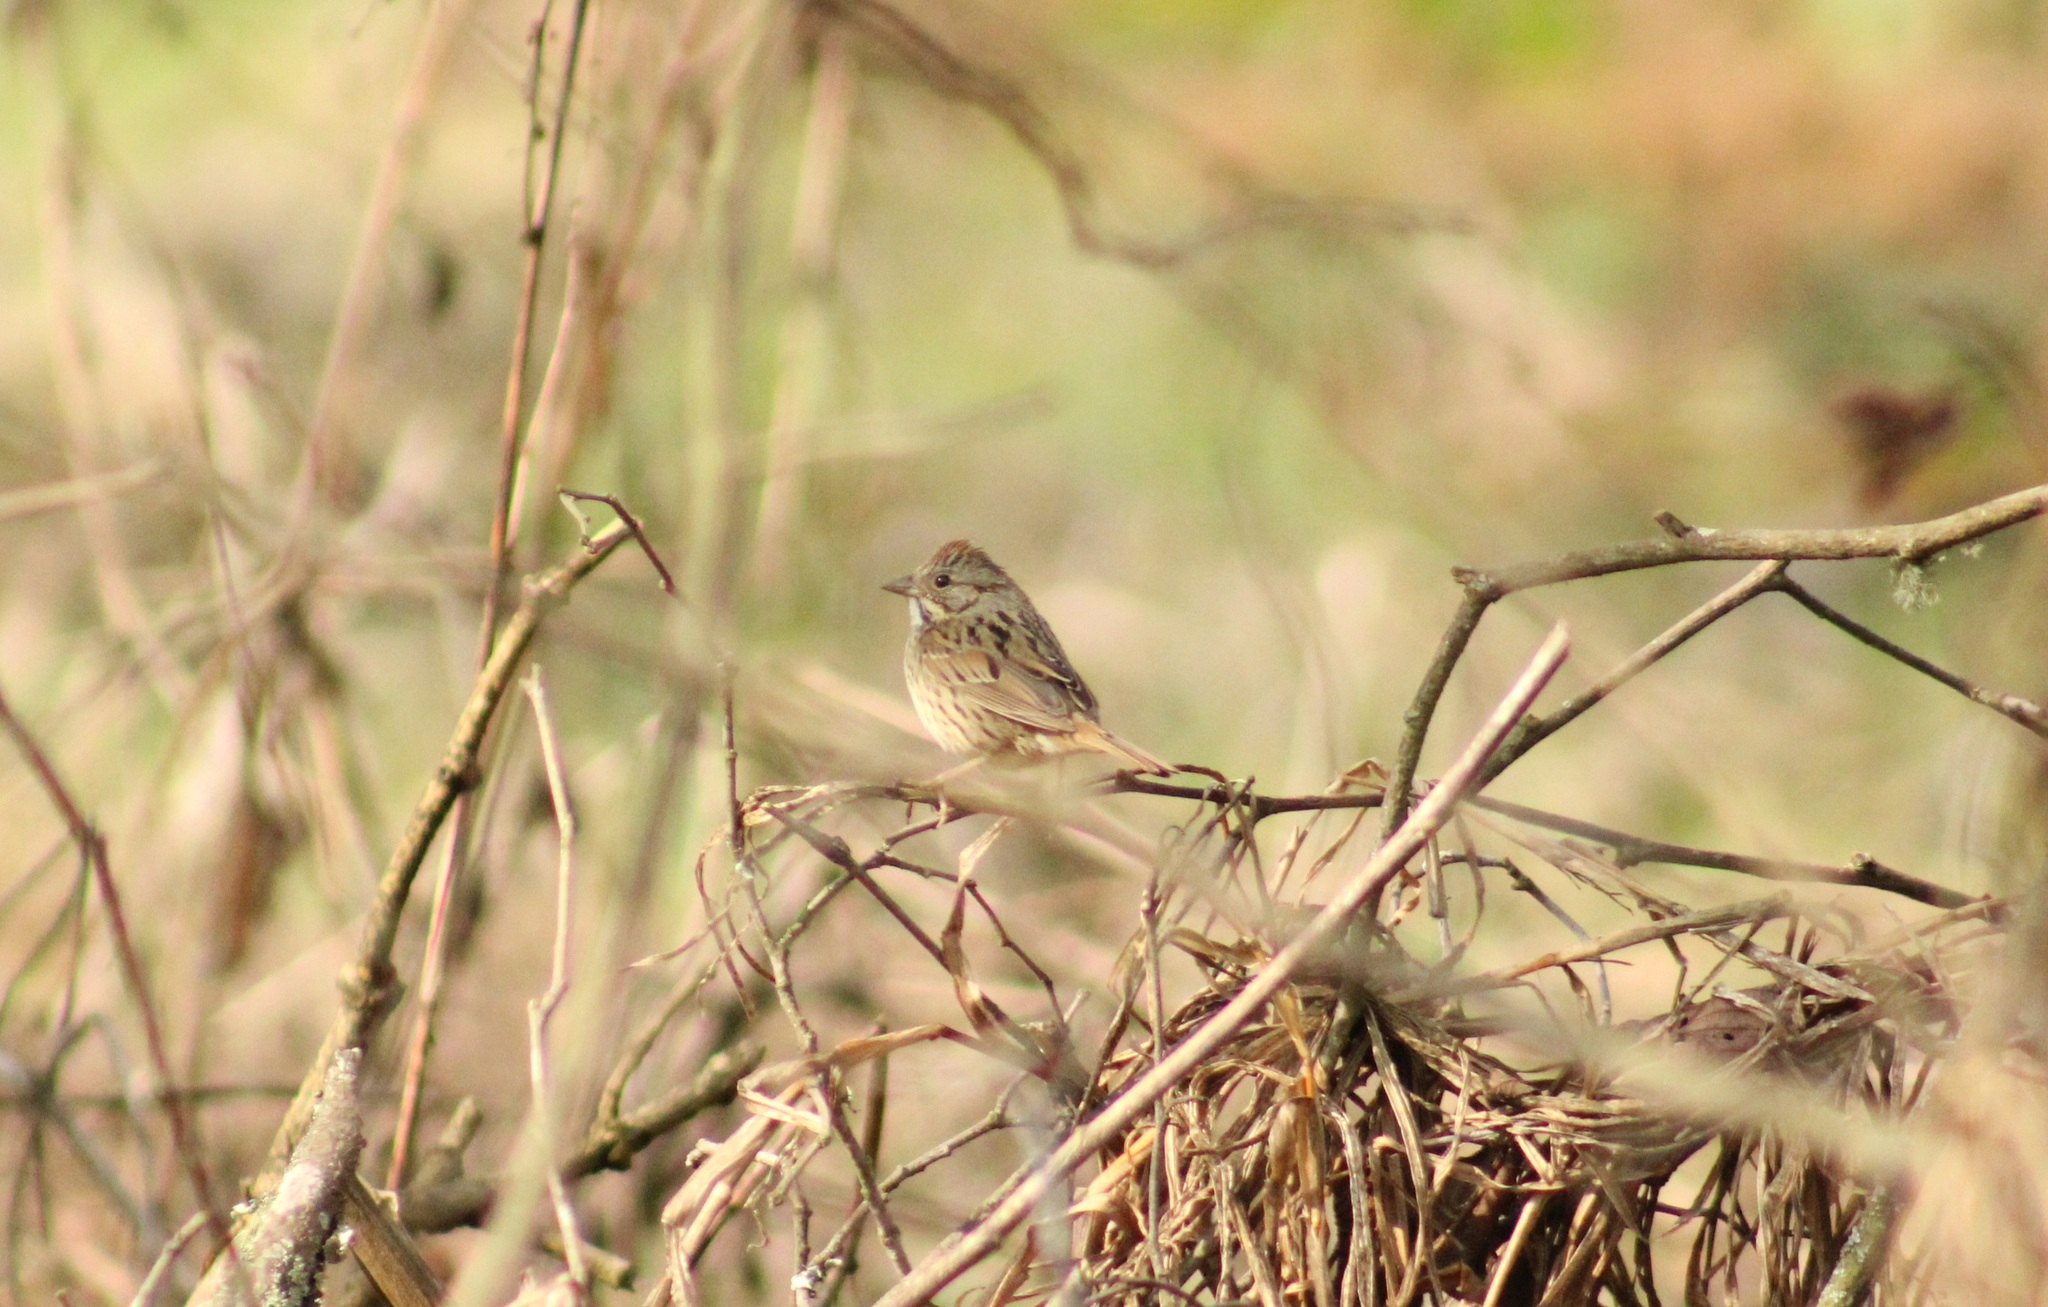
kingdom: Animalia
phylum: Chordata
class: Aves
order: Passeriformes
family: Passerellidae
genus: Melospiza
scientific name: Melospiza lincolnii
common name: Lincoln's sparrow
